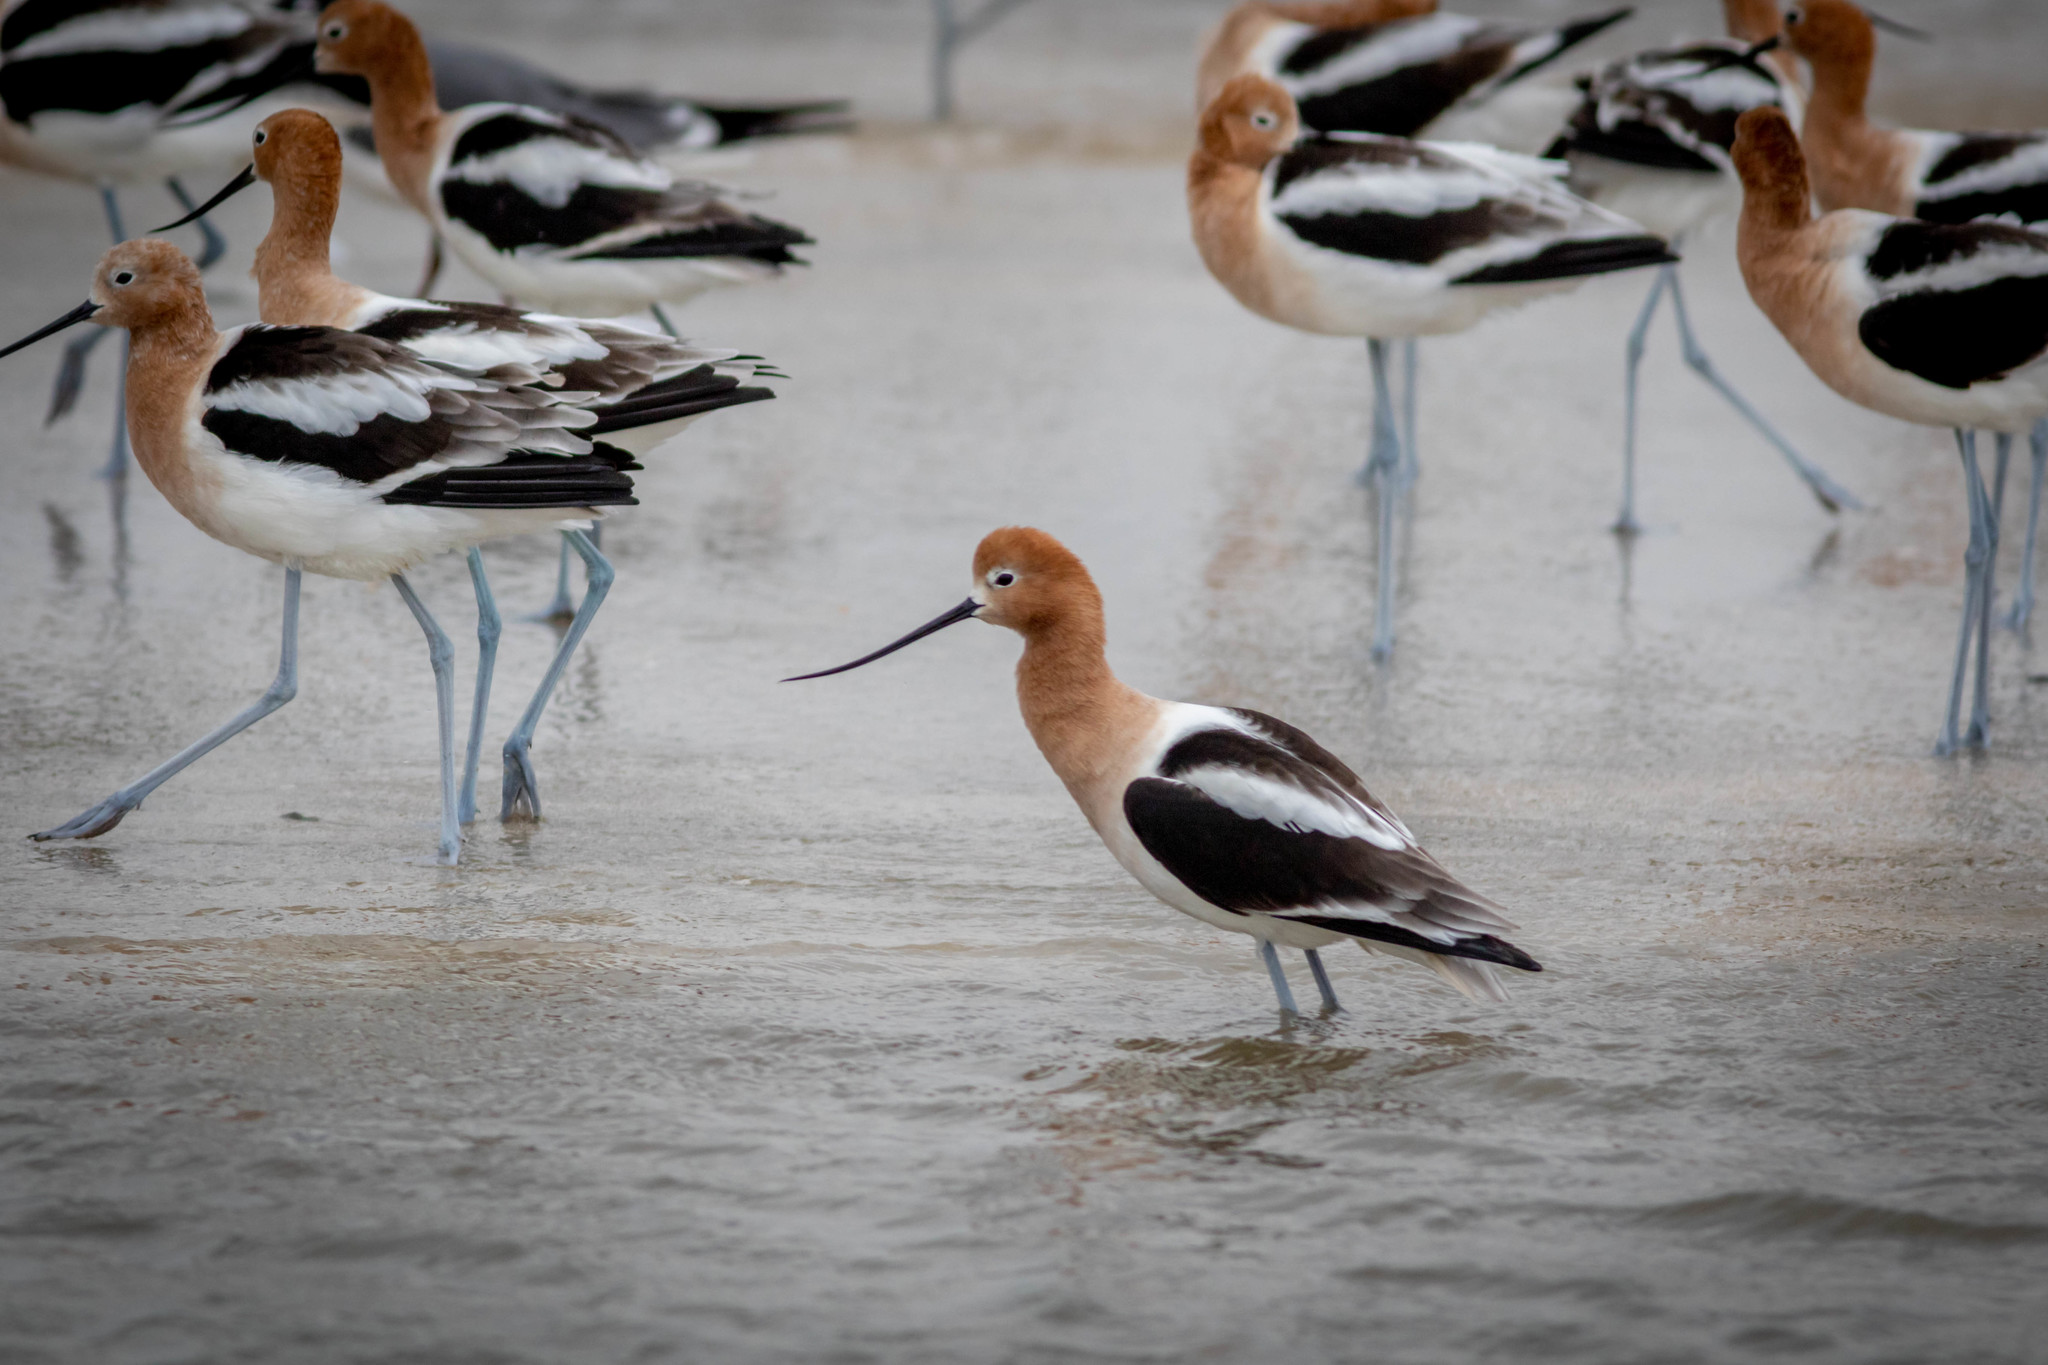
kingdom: Animalia
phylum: Chordata
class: Aves
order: Charadriiformes
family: Recurvirostridae
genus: Recurvirostra
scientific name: Recurvirostra americana
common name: American avocet
